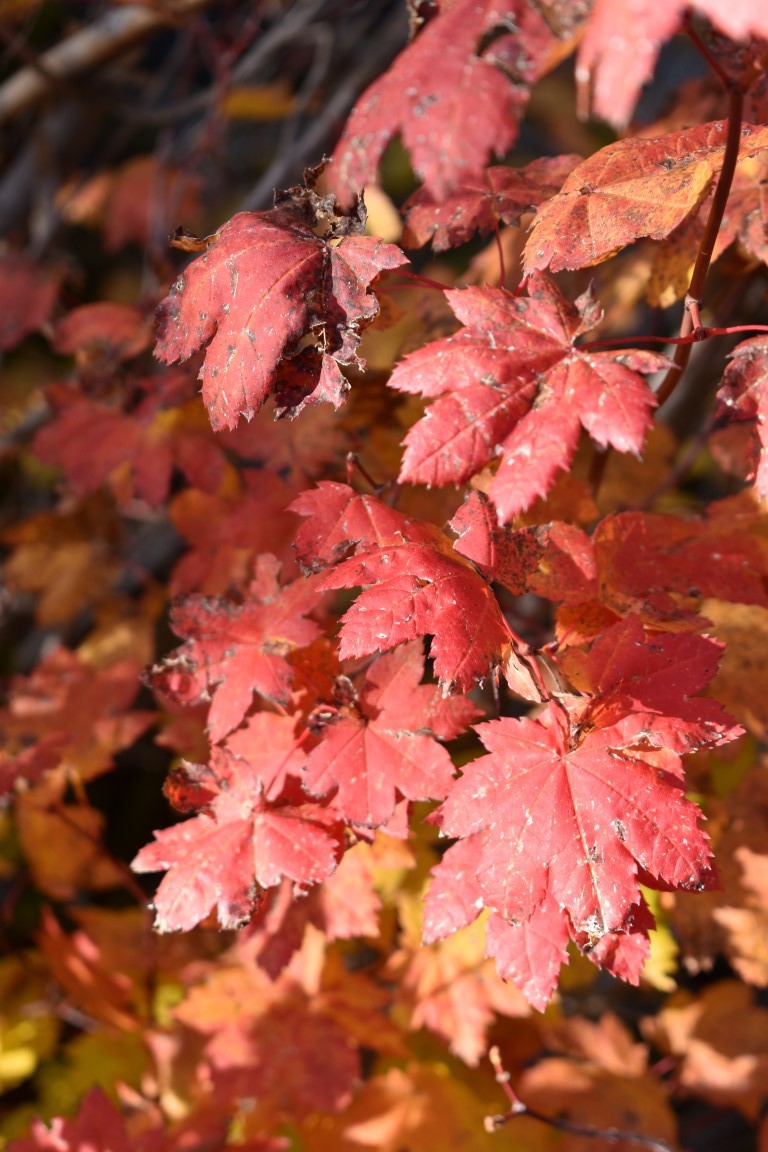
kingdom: Plantae
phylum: Tracheophyta
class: Magnoliopsida
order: Sapindales
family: Sapindaceae
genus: Acer
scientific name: Acer circinatum
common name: Vine maple
